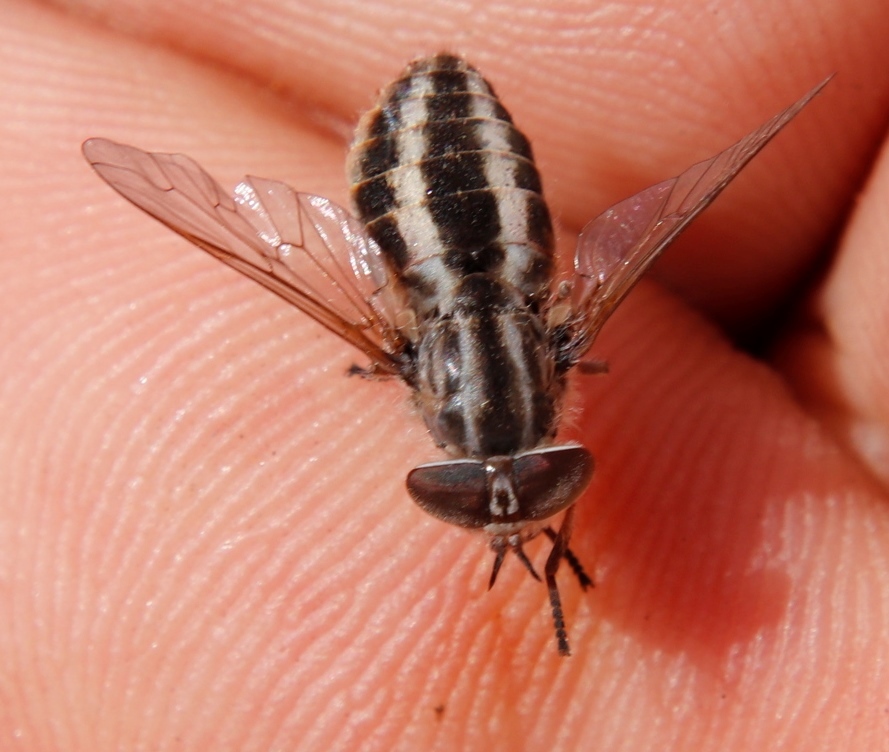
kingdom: Animalia
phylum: Arthropoda
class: Insecta
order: Diptera
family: Tabanidae
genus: Tabanus
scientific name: Tabanus taeniatus
